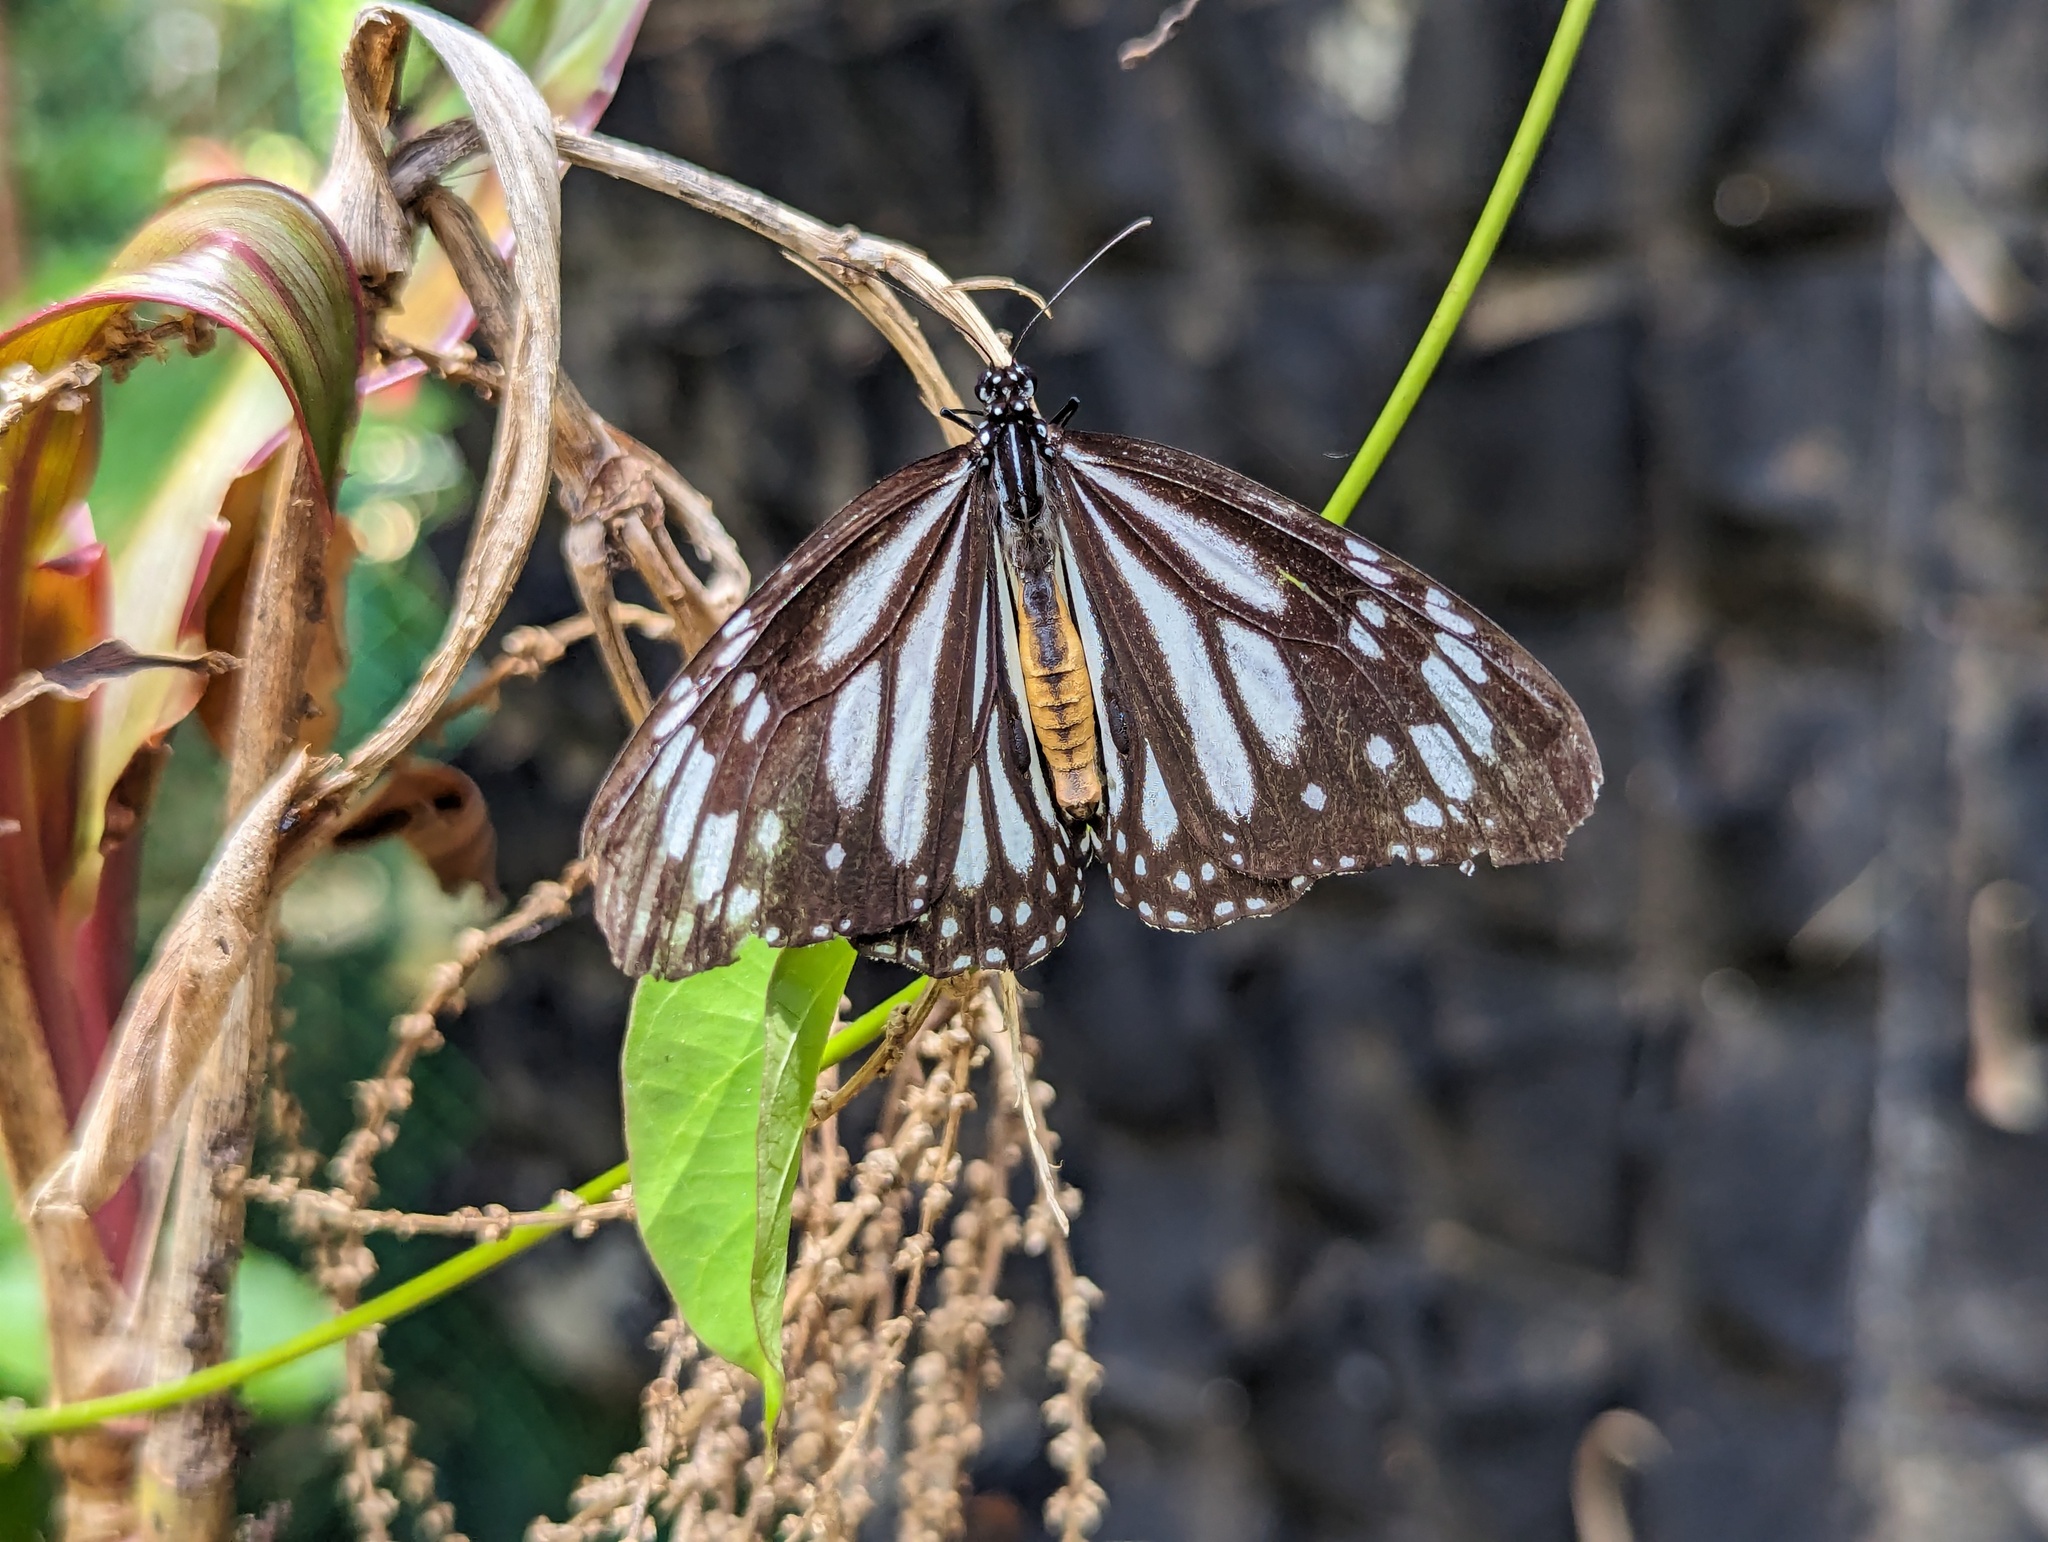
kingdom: Animalia
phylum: Arthropoda
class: Insecta
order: Lepidoptera
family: Nymphalidae
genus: Danaus
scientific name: Danaus melanippus
